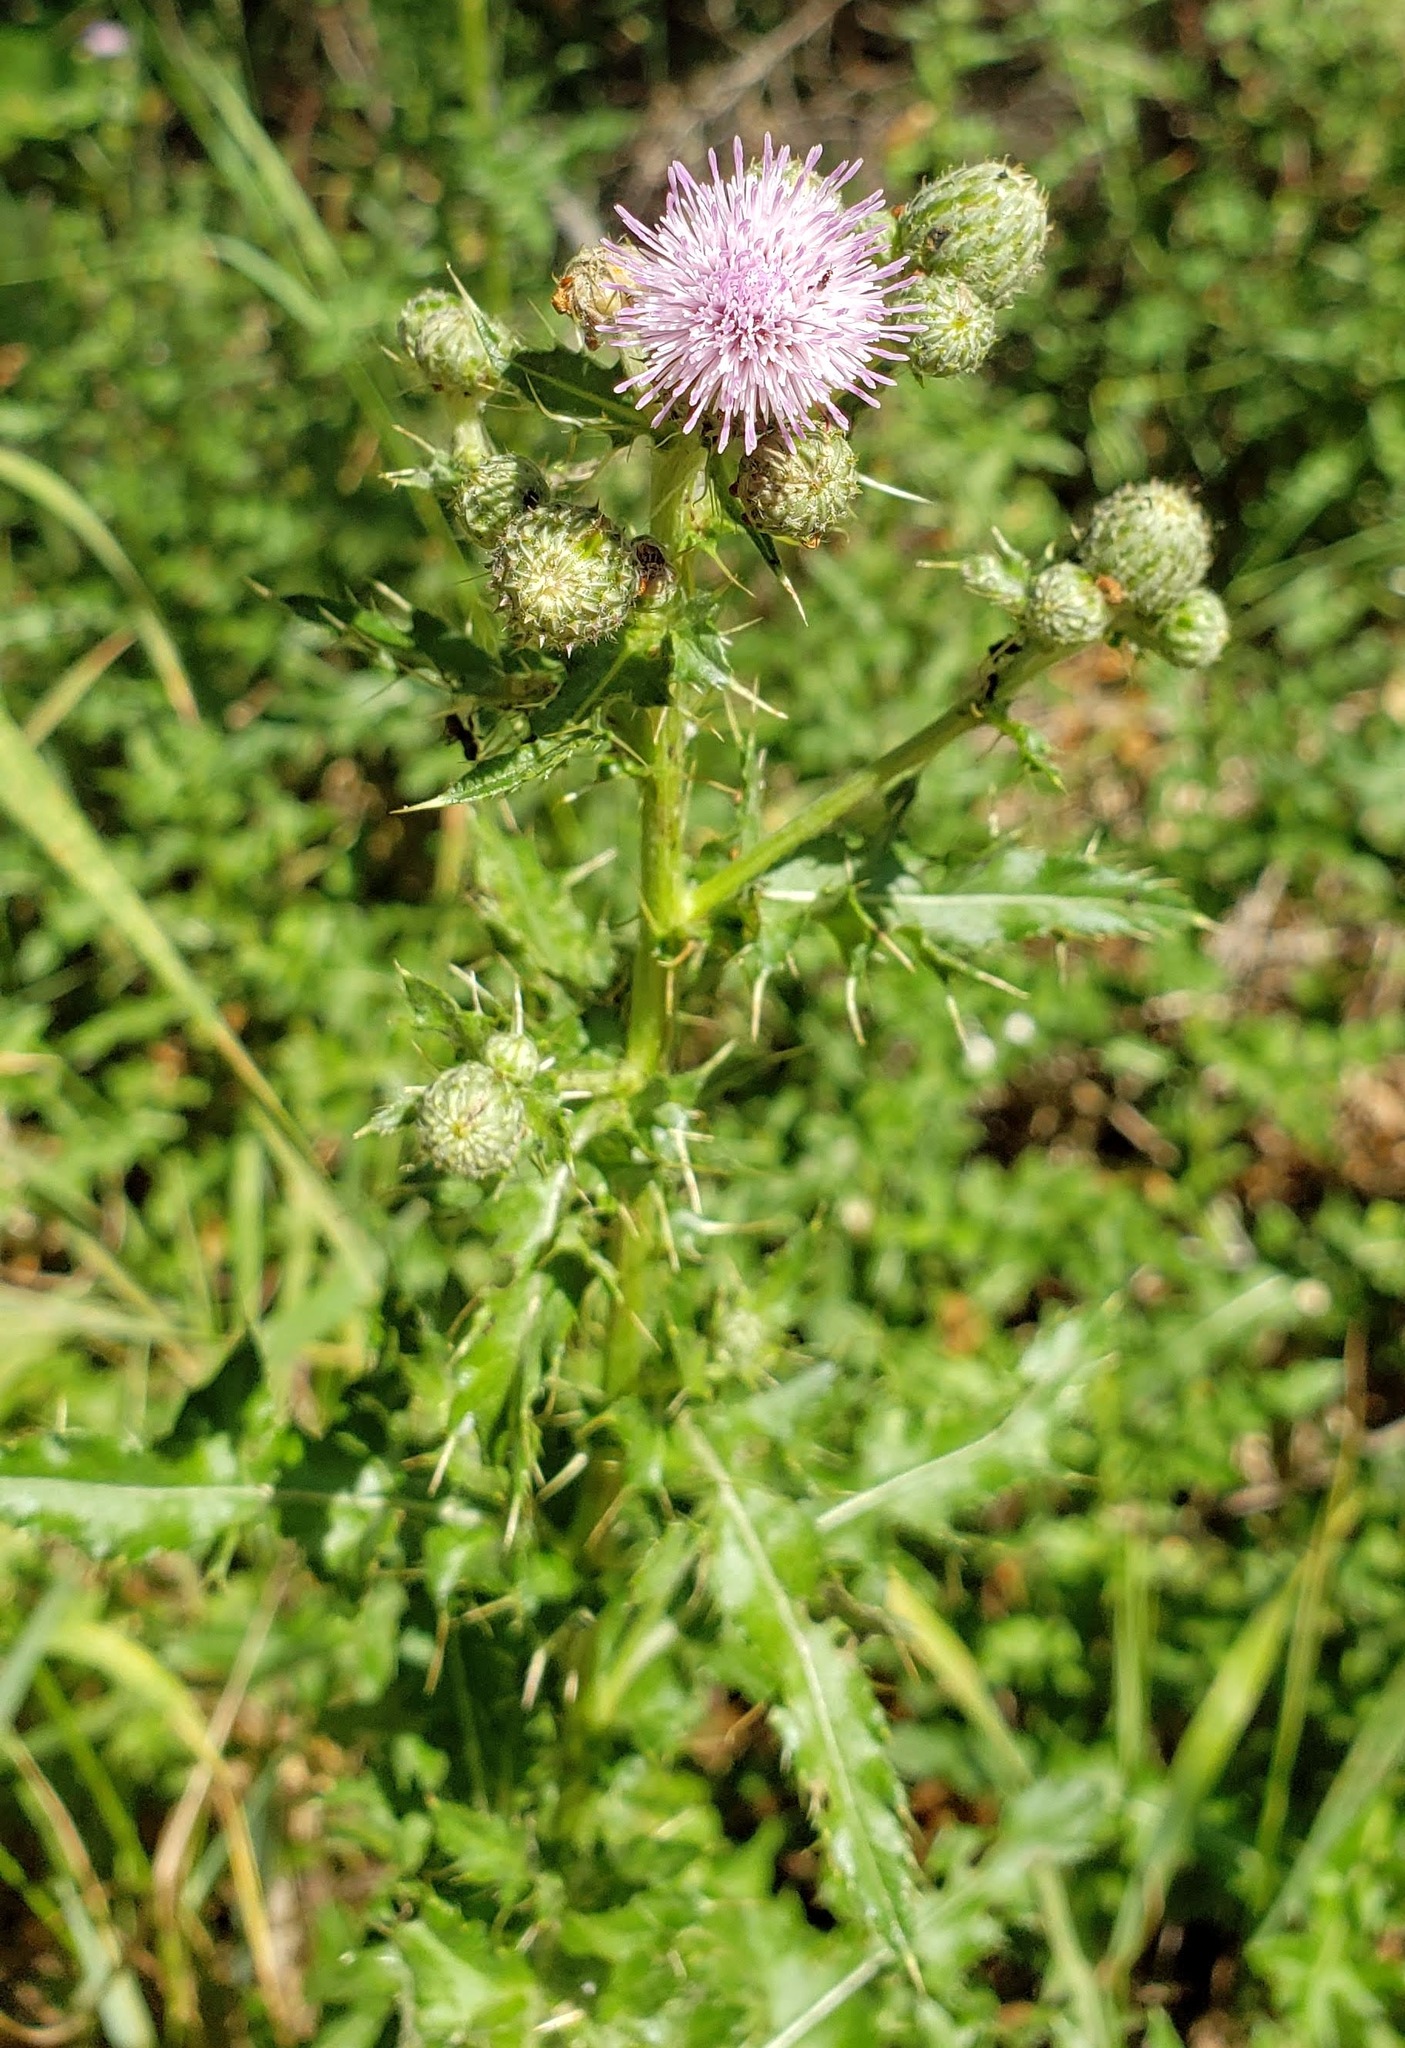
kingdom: Plantae
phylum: Tracheophyta
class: Magnoliopsida
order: Asterales
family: Asteraceae
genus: Cirsium
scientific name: Cirsium arvense
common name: Creeping thistle
